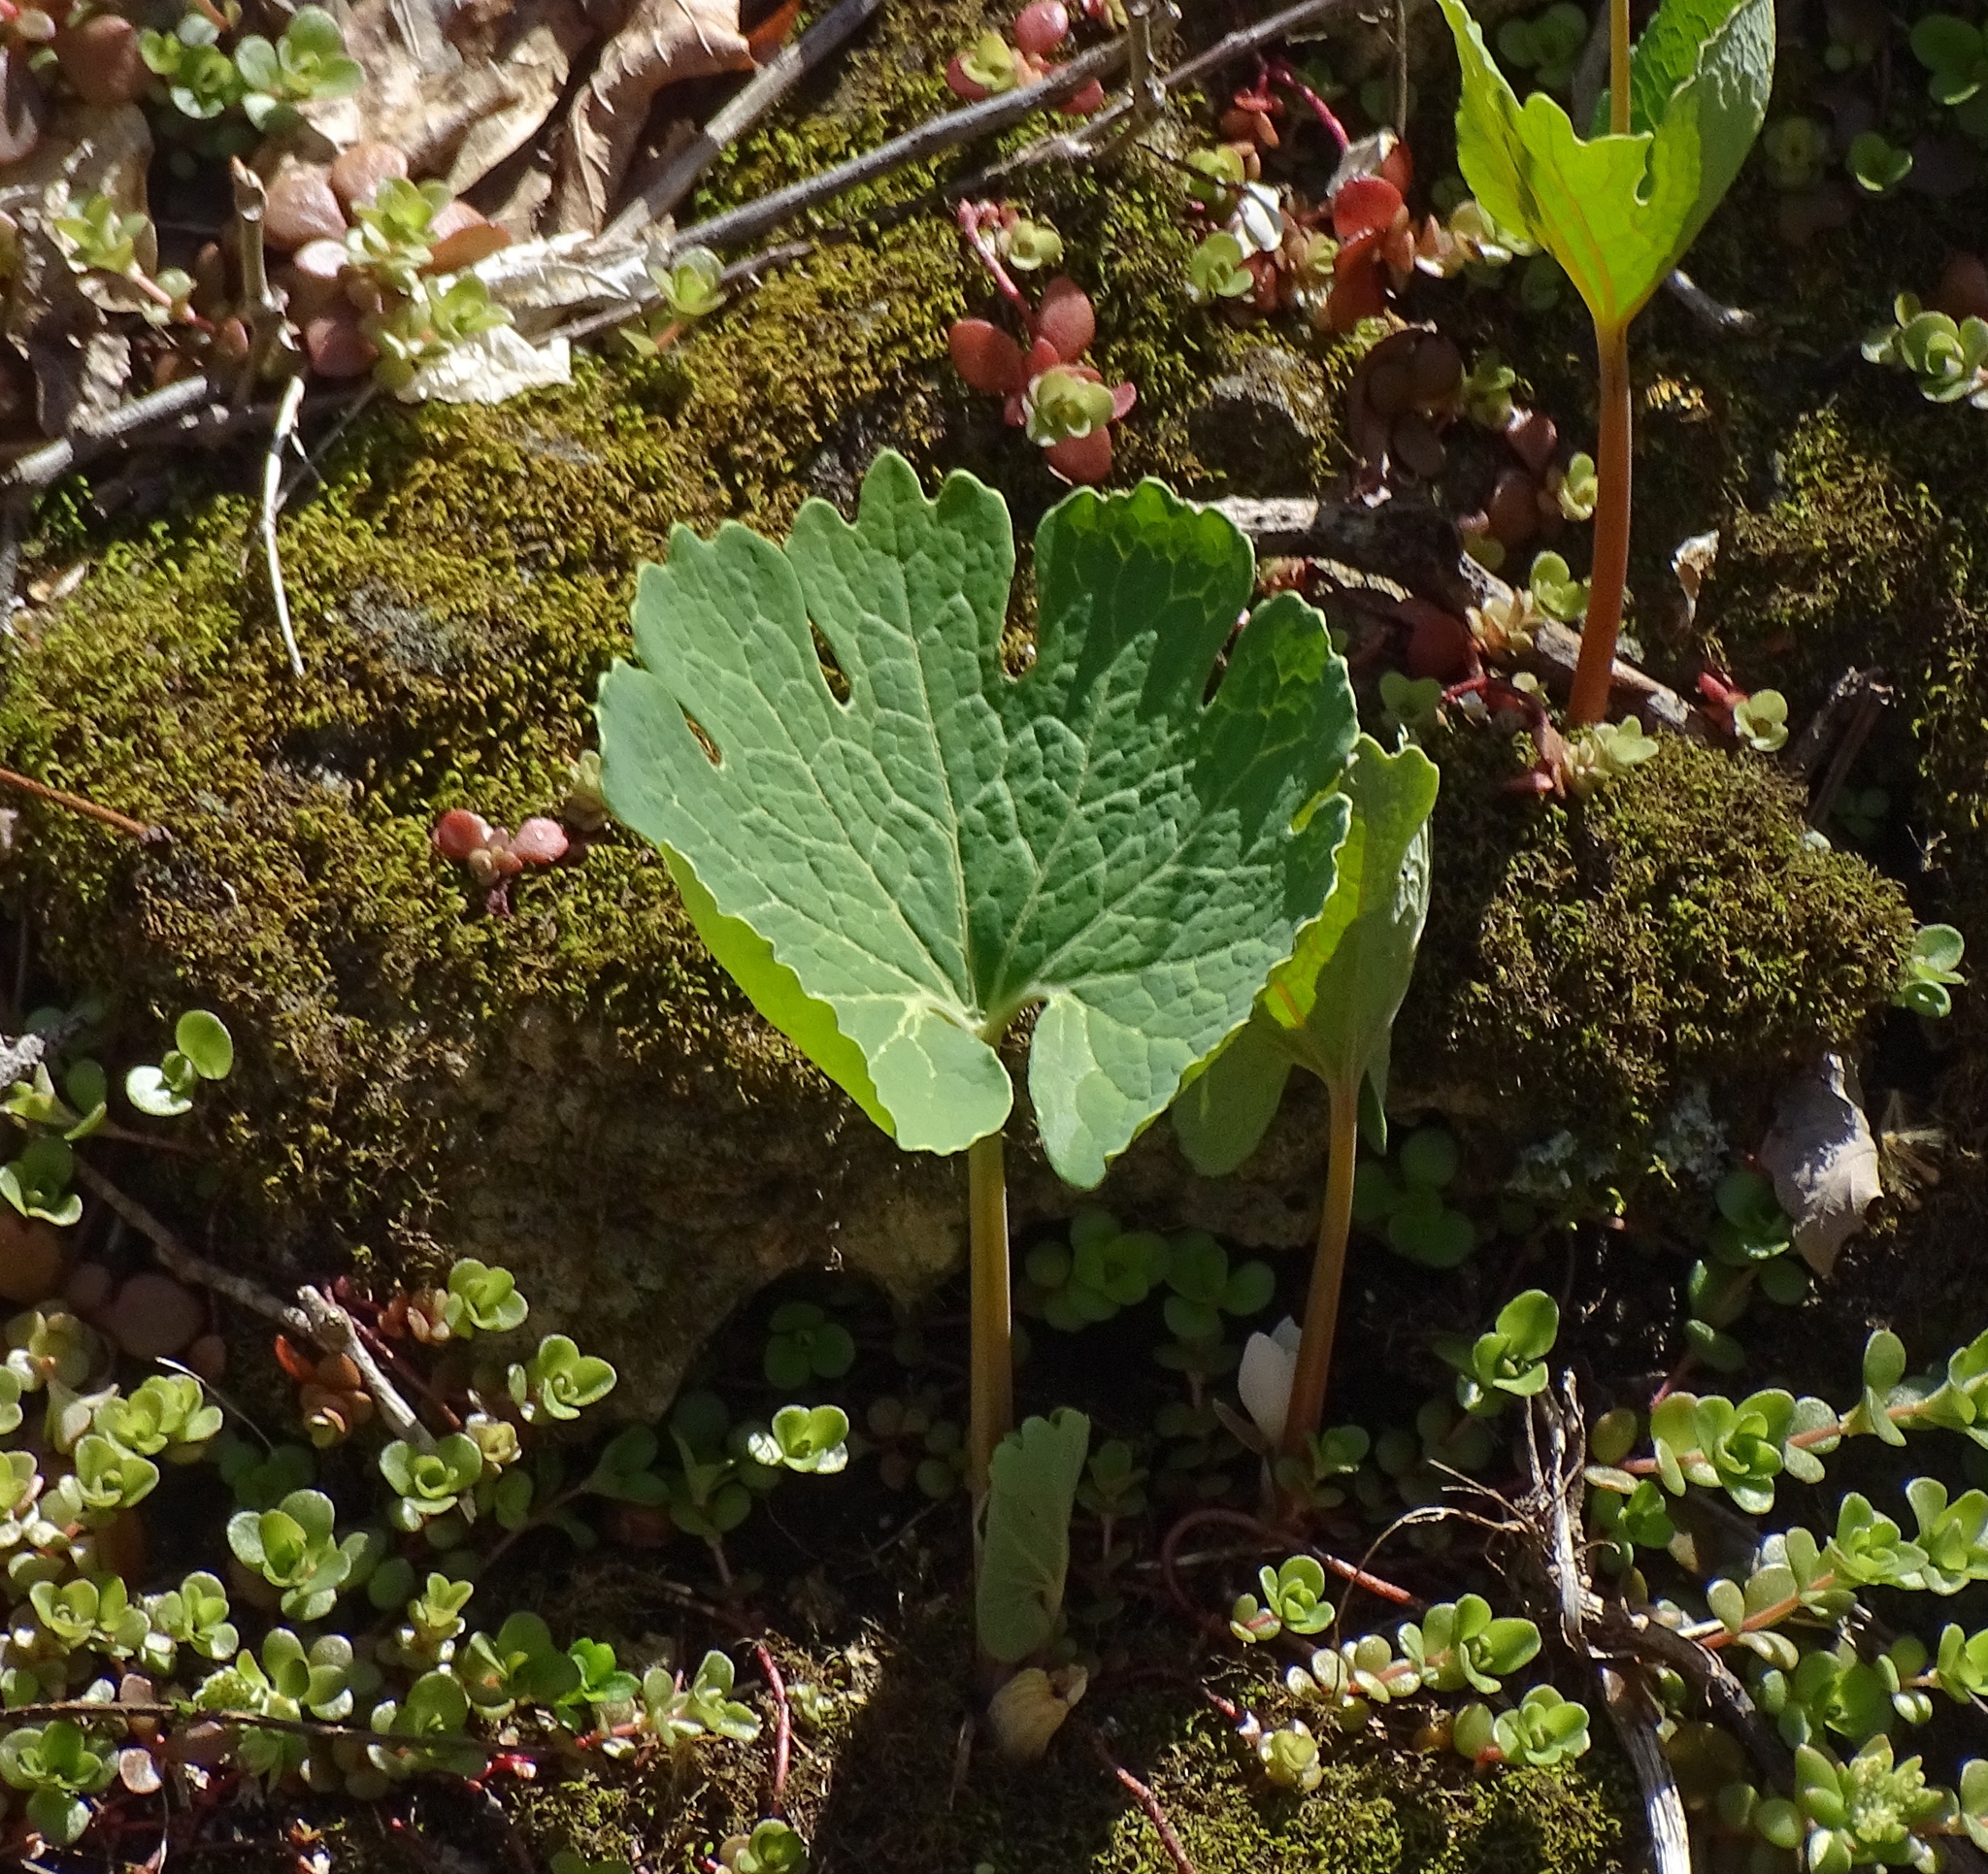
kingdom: Plantae
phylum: Tracheophyta
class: Magnoliopsida
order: Ranunculales
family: Papaveraceae
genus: Sanguinaria
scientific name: Sanguinaria canadensis
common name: Bloodroot
